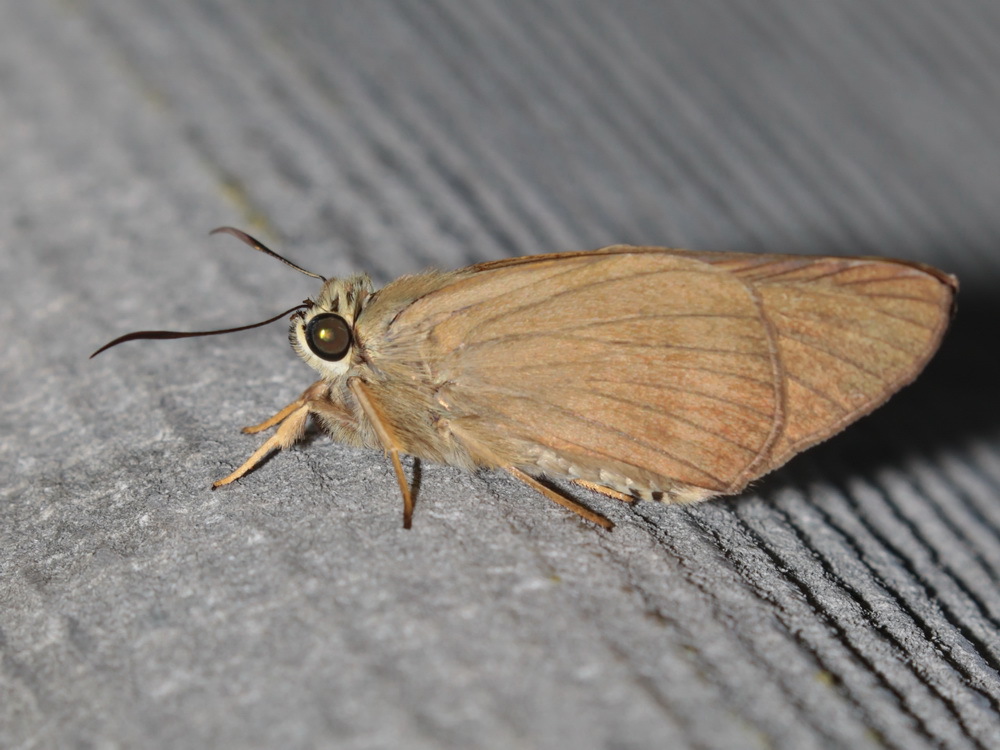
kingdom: Animalia
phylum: Arthropoda
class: Insecta
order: Lepidoptera
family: Hesperiidae
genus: Badamia
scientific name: Badamia exclamationis
